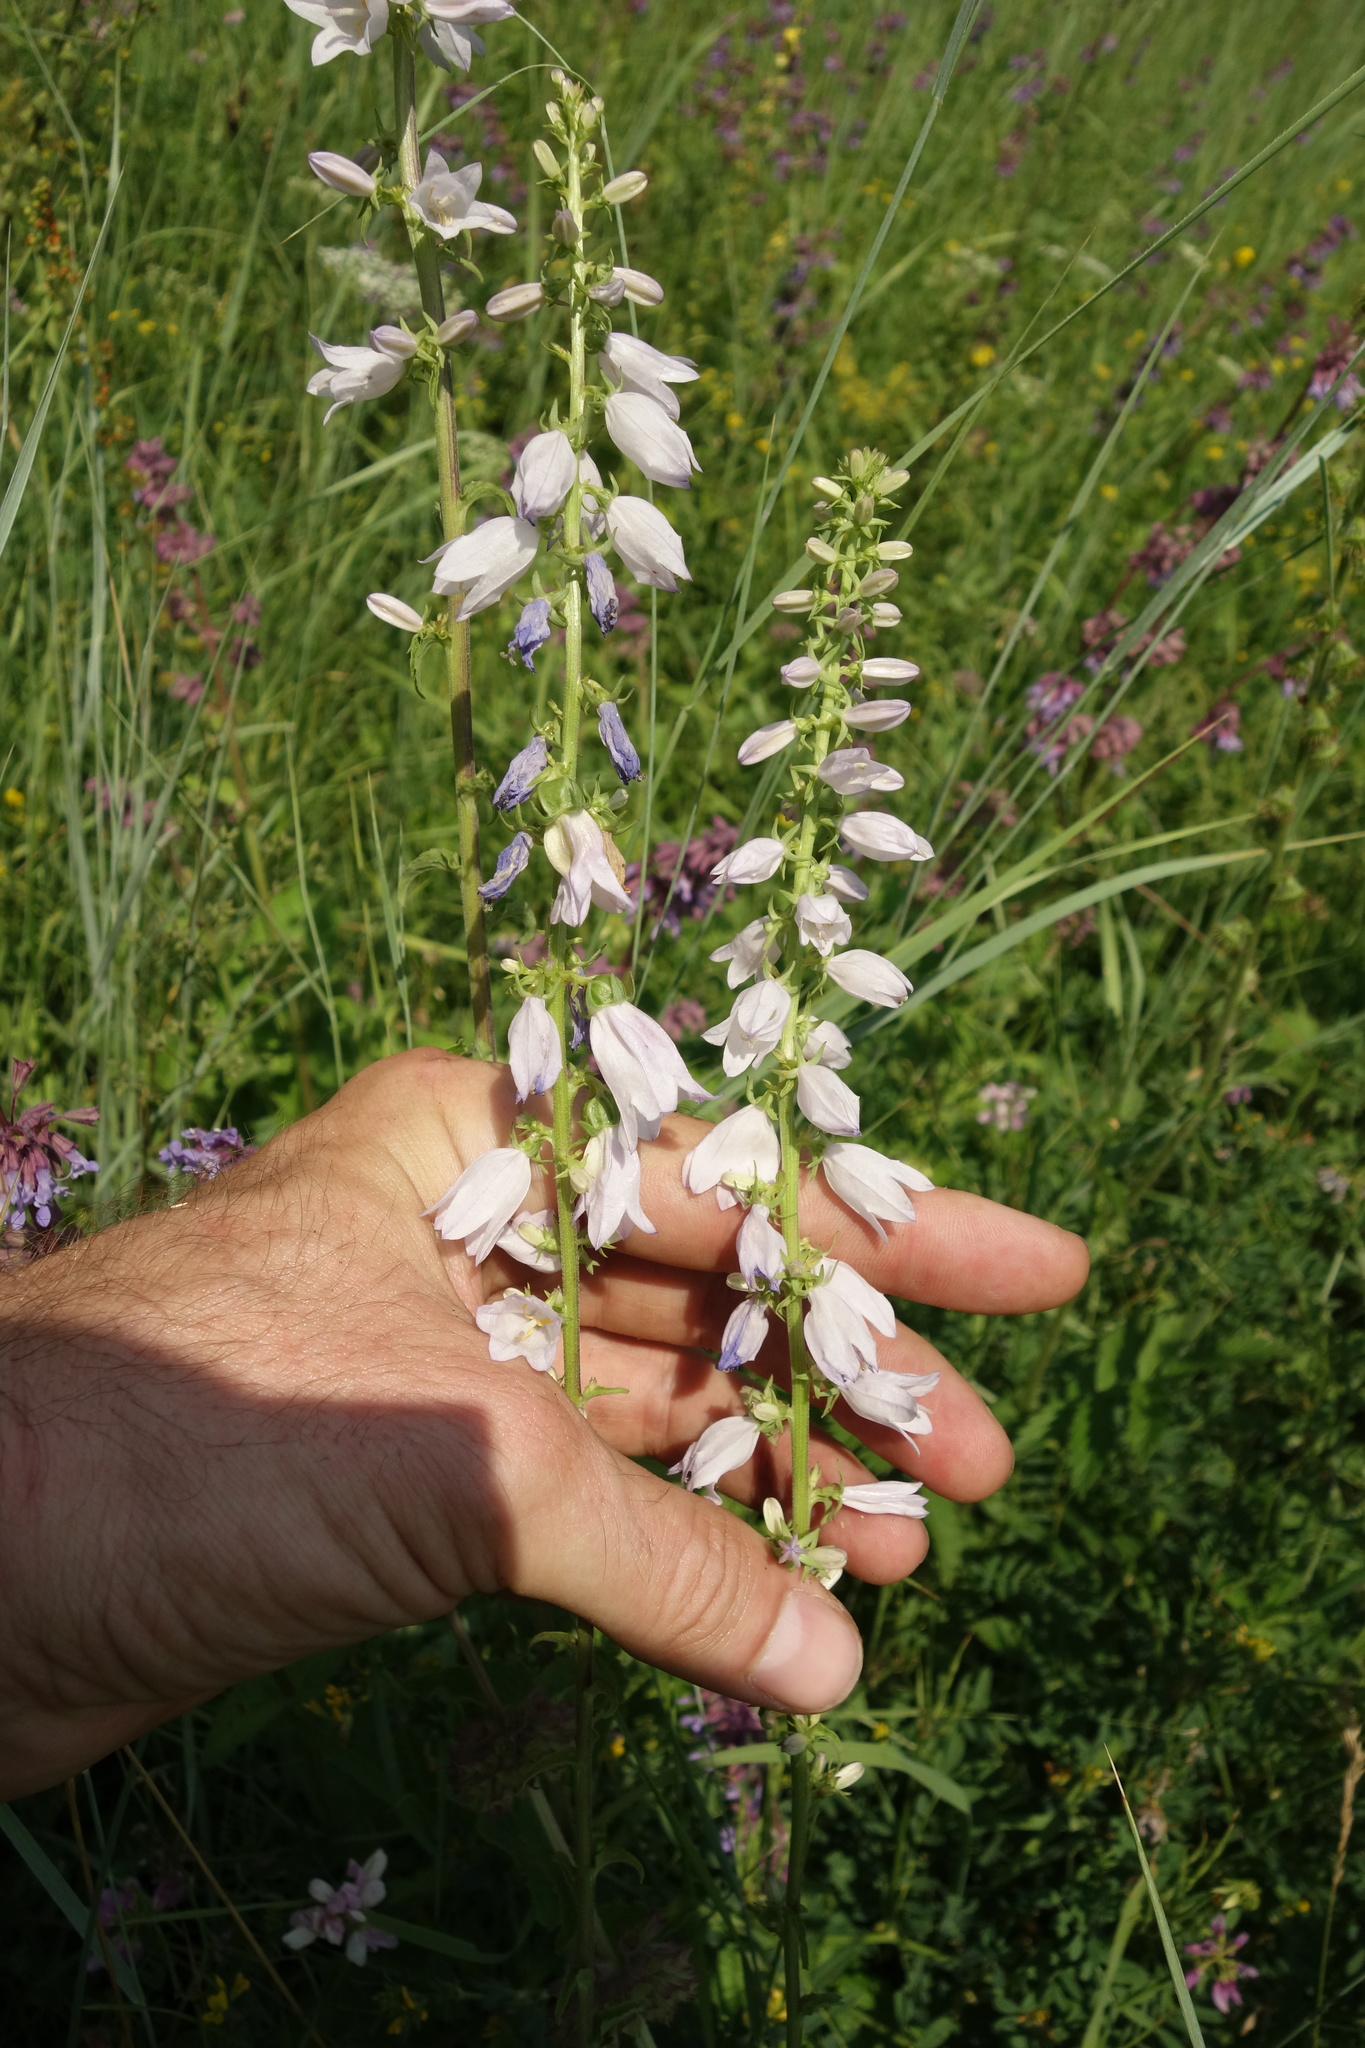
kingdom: Plantae
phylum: Tracheophyta
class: Magnoliopsida
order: Asterales
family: Campanulaceae
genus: Campanula
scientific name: Campanula bononiensis
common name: Pale bellflower
